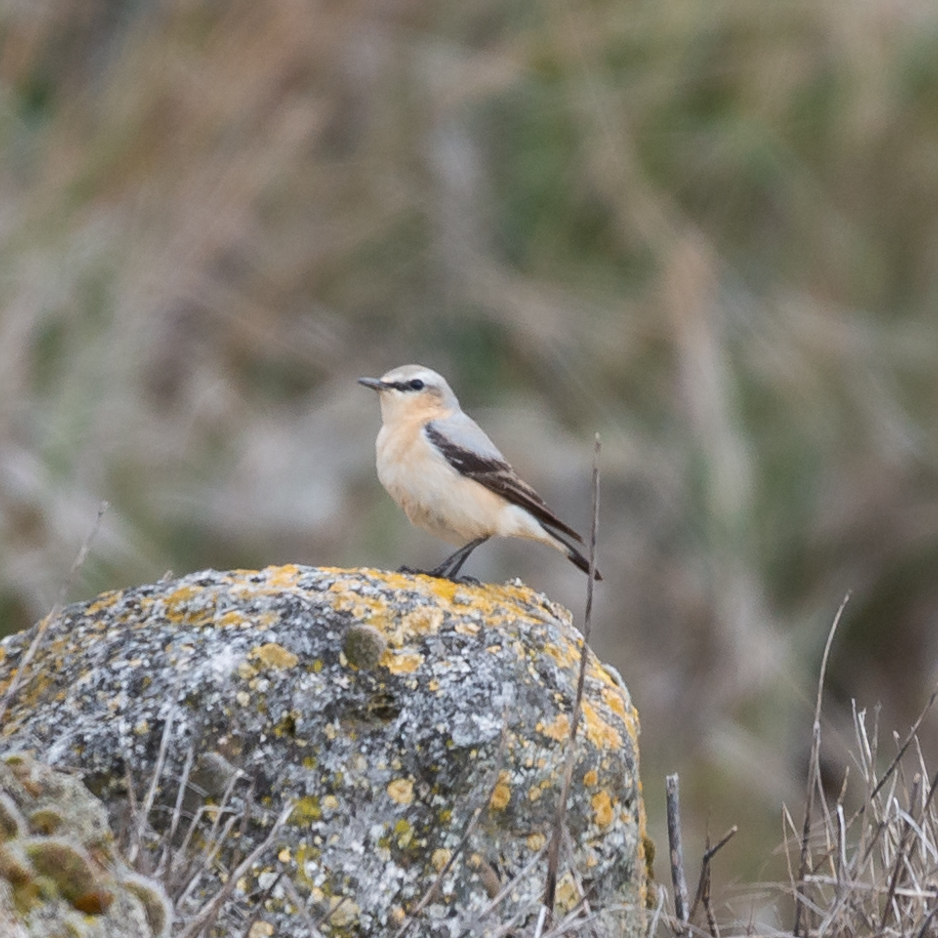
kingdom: Animalia
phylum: Chordata
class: Aves
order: Passeriformes
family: Muscicapidae
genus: Oenanthe
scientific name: Oenanthe oenanthe
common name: Northern wheatear
